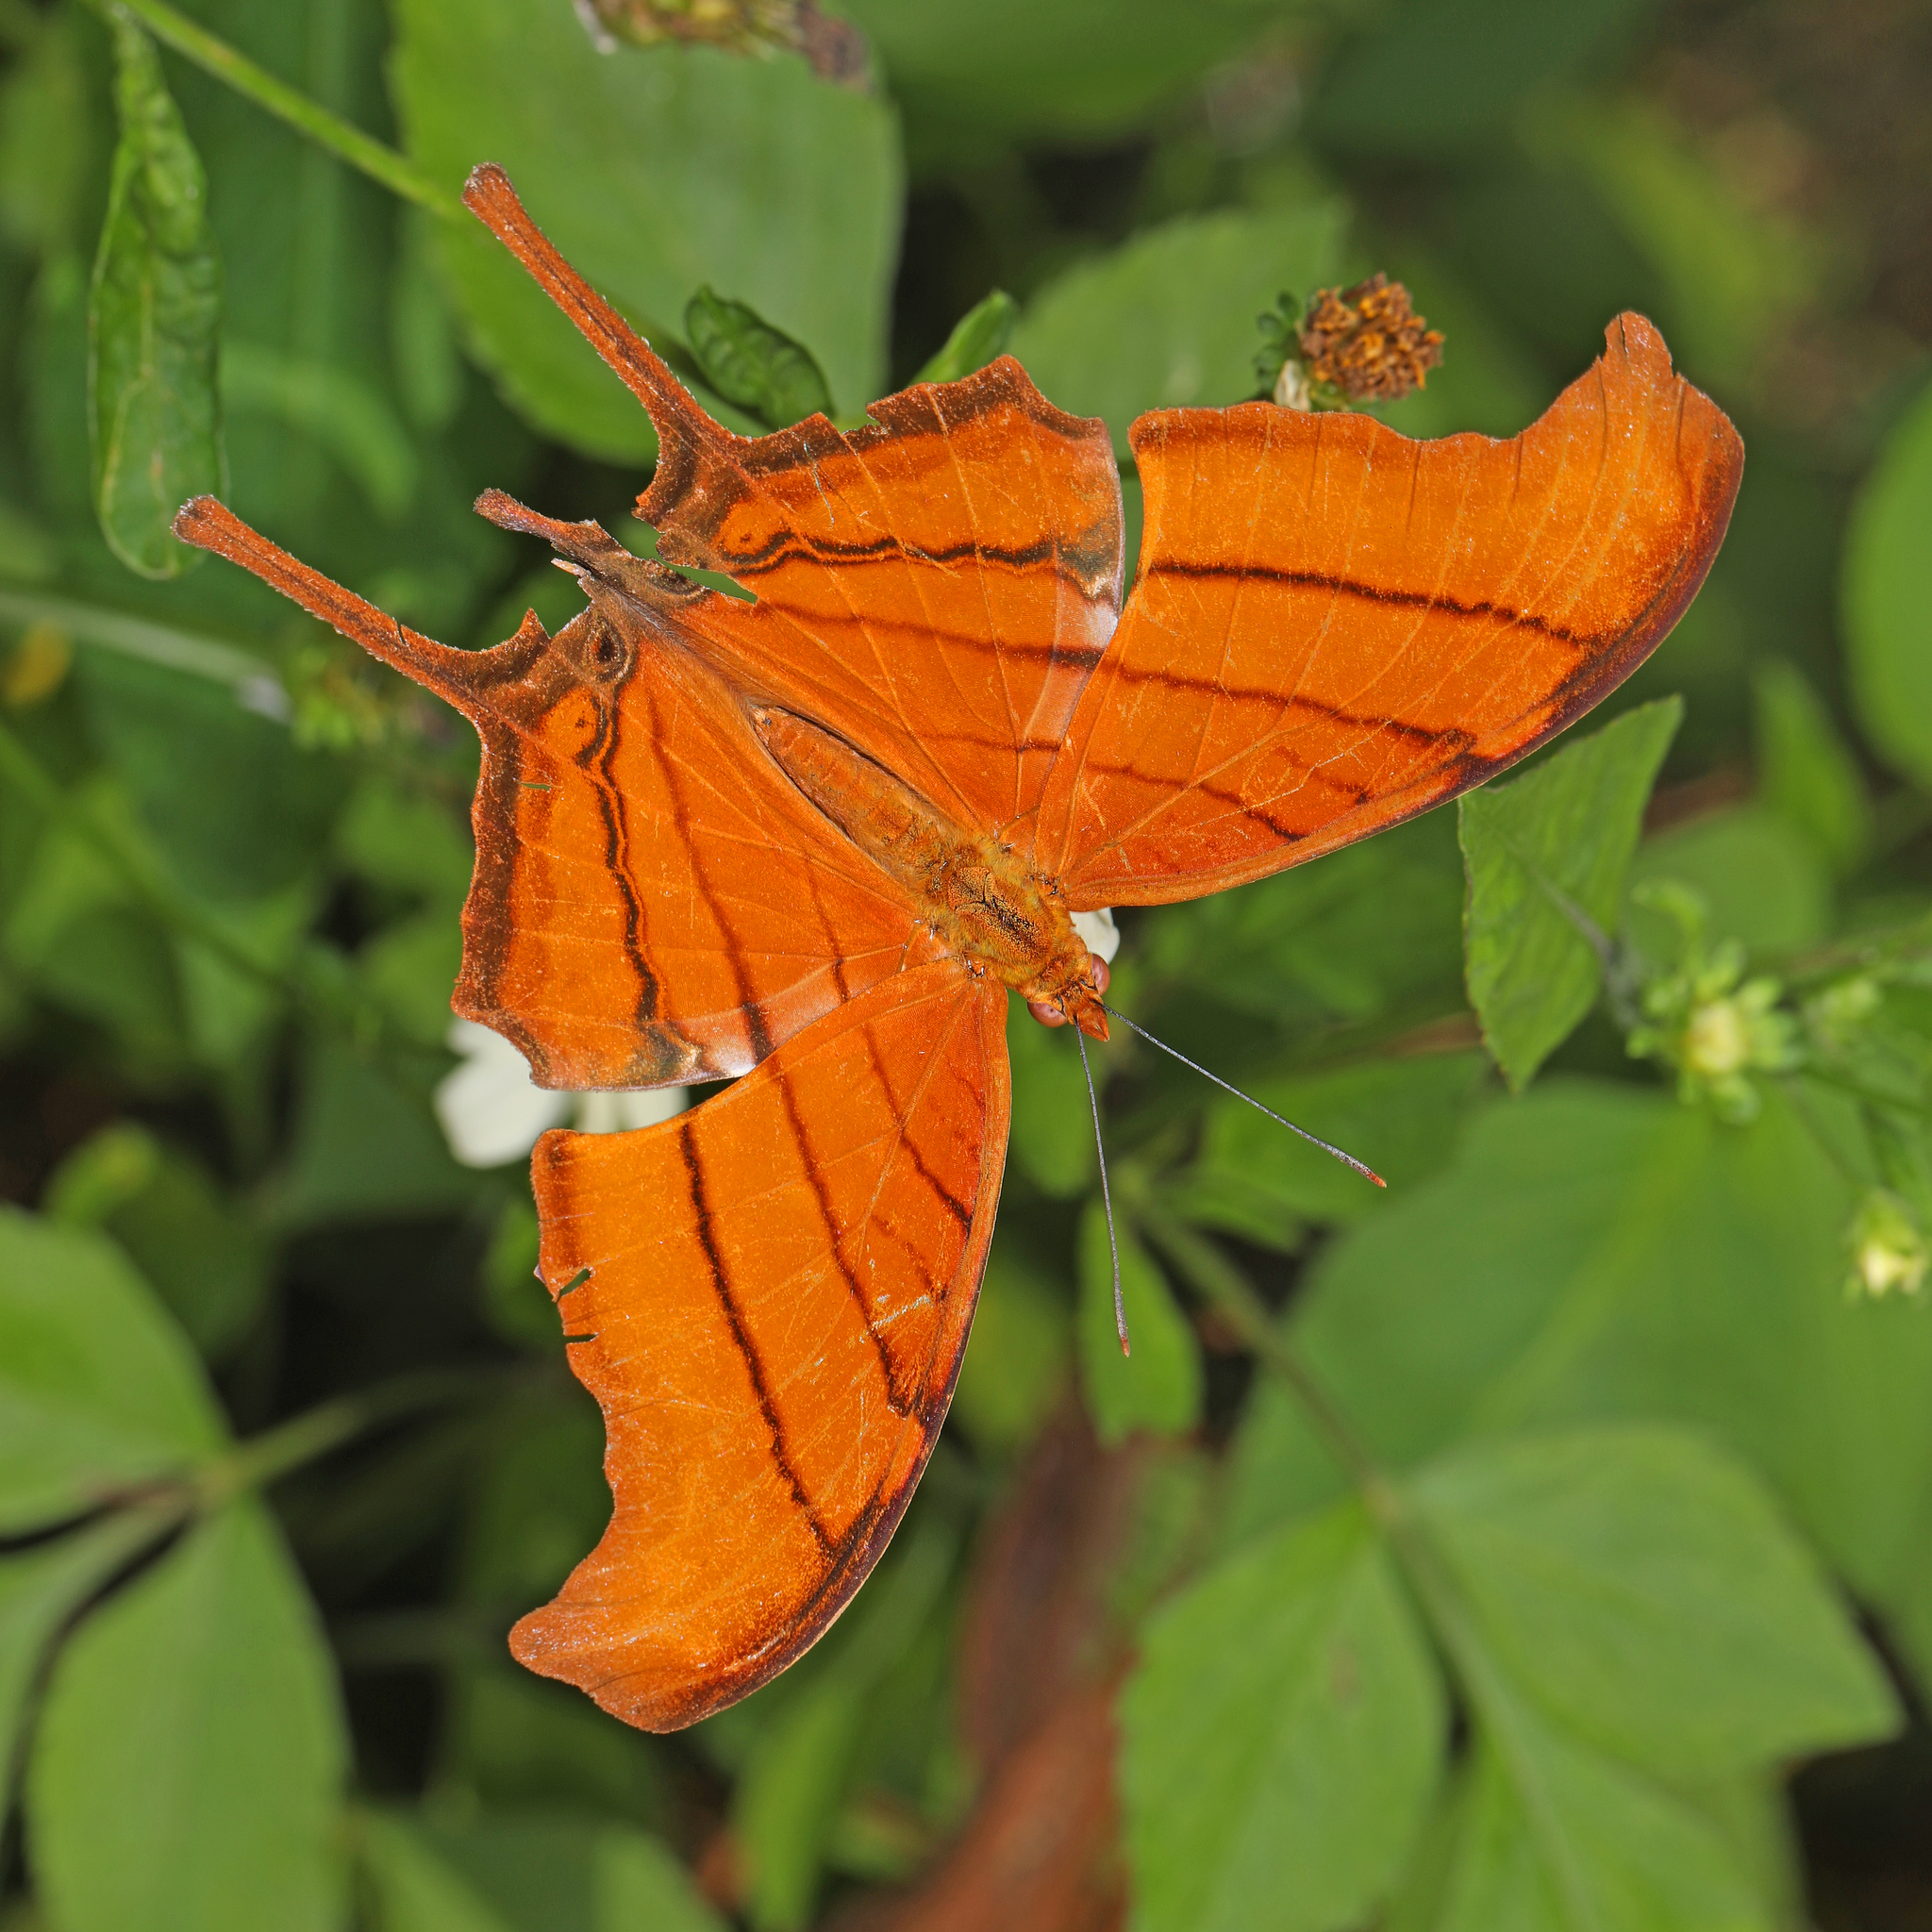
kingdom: Animalia
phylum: Arthropoda
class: Insecta
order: Lepidoptera
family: Nymphalidae
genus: Marpesia
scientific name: Marpesia petreus
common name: Red dagger wing
